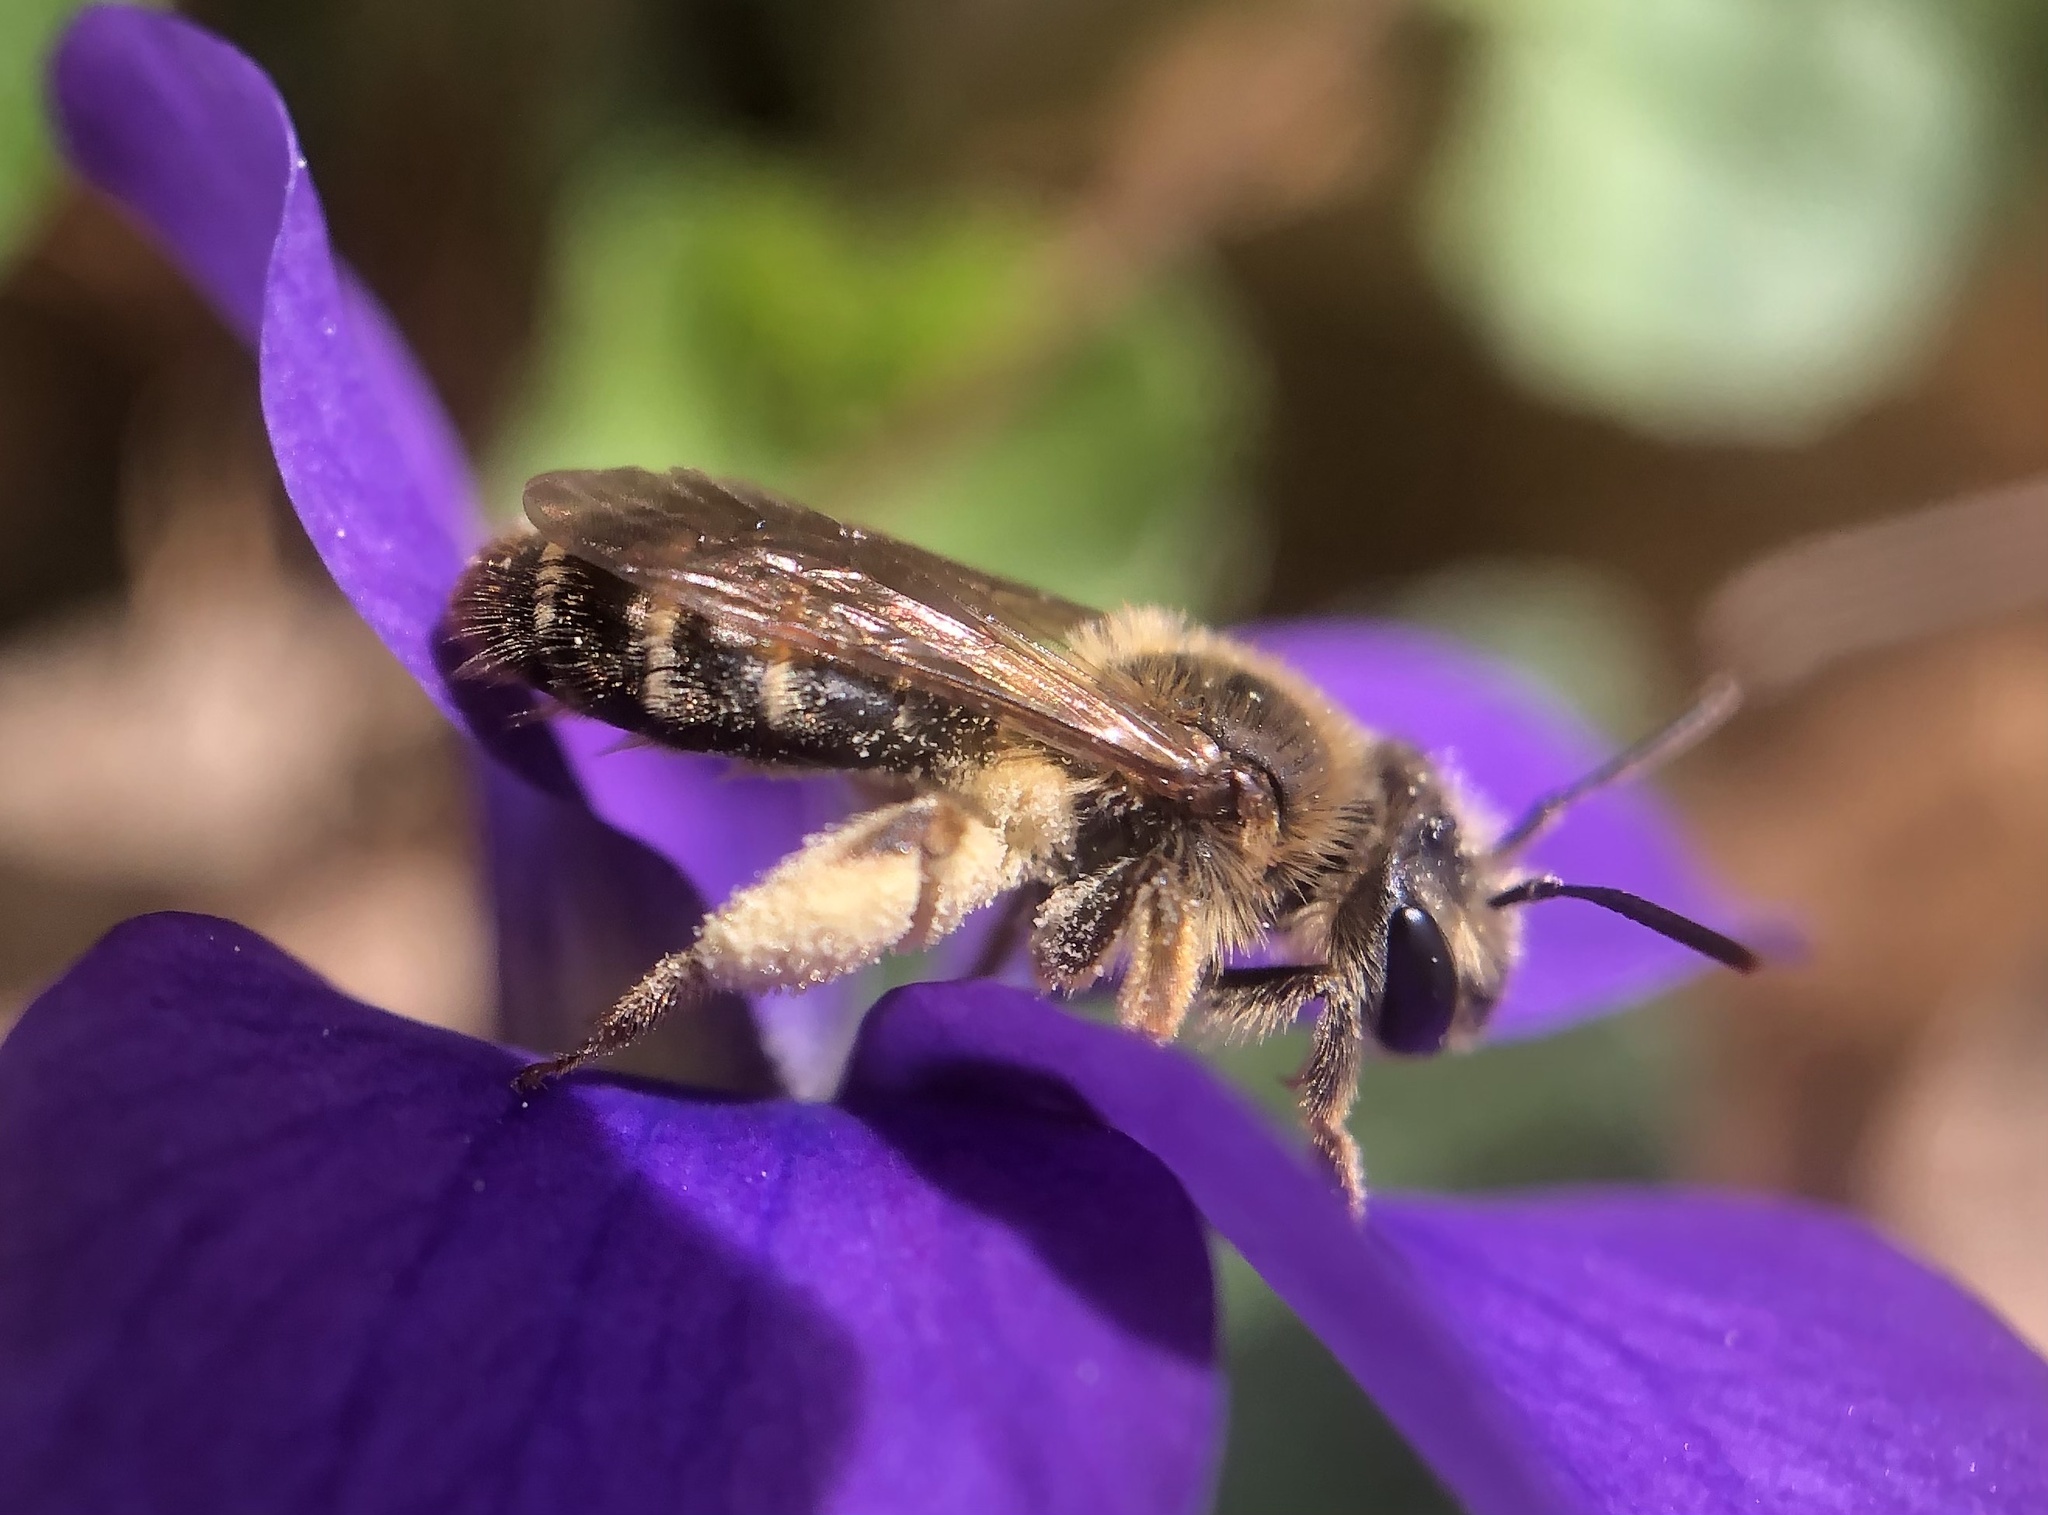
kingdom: Animalia
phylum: Arthropoda
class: Insecta
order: Hymenoptera
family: Andrenidae
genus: Andrena
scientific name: Andrena violae
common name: Violet miner
